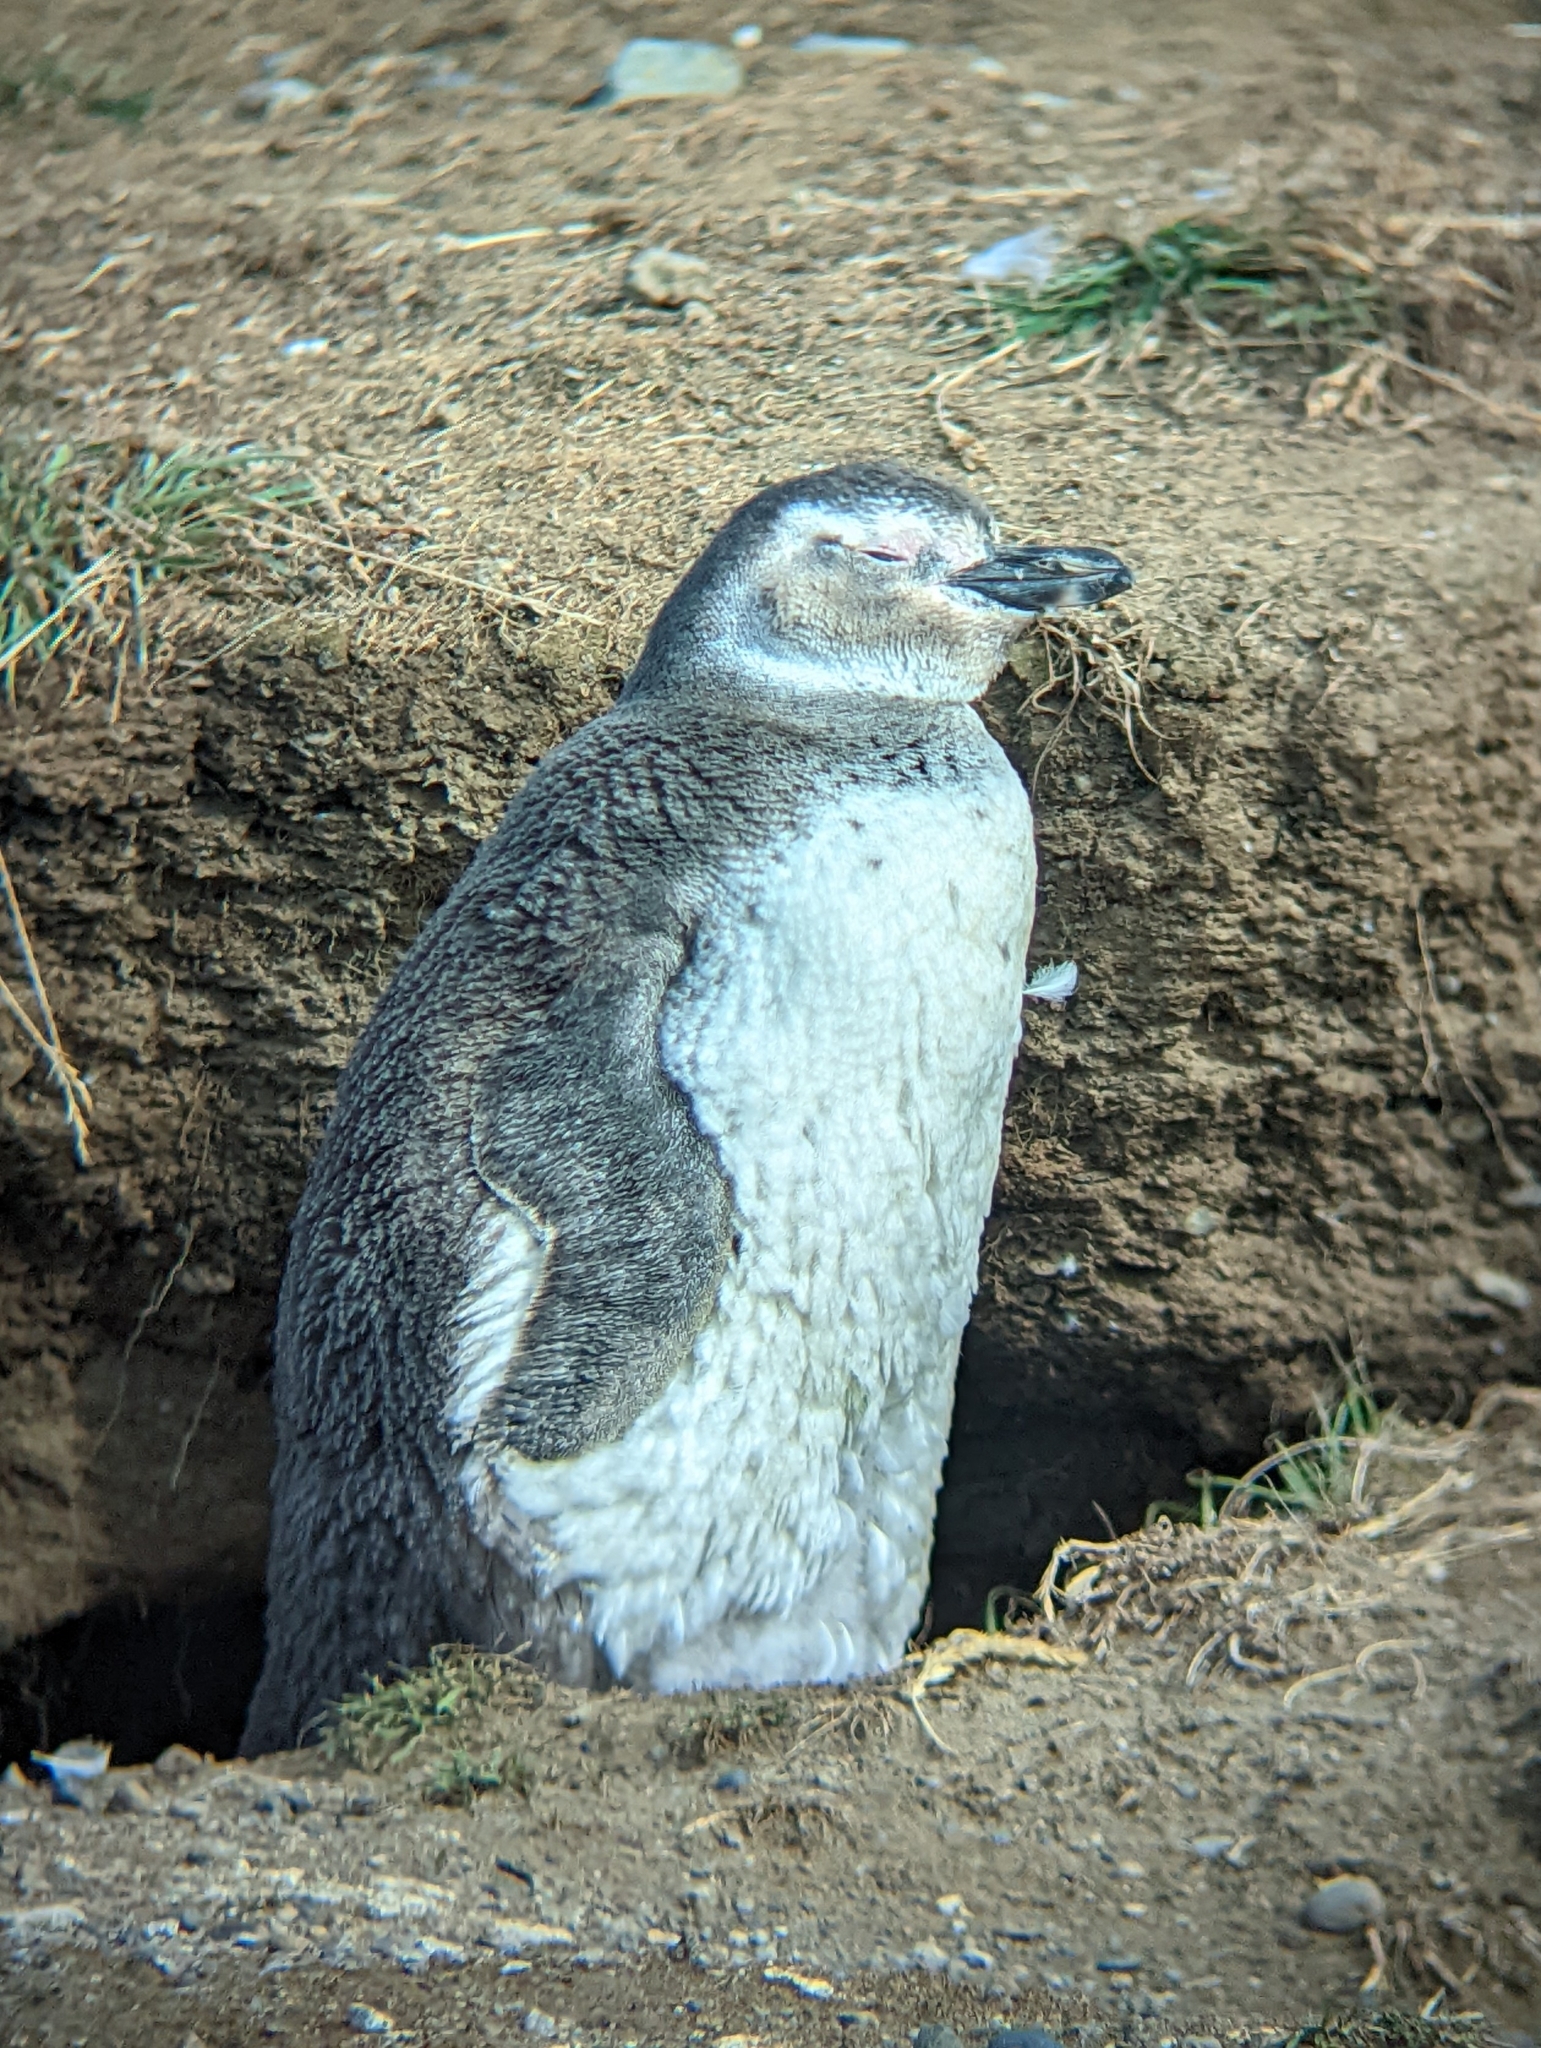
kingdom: Animalia
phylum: Chordata
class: Aves
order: Sphenisciformes
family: Spheniscidae
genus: Spheniscus
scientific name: Spheniscus magellanicus
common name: Magellanic penguin
